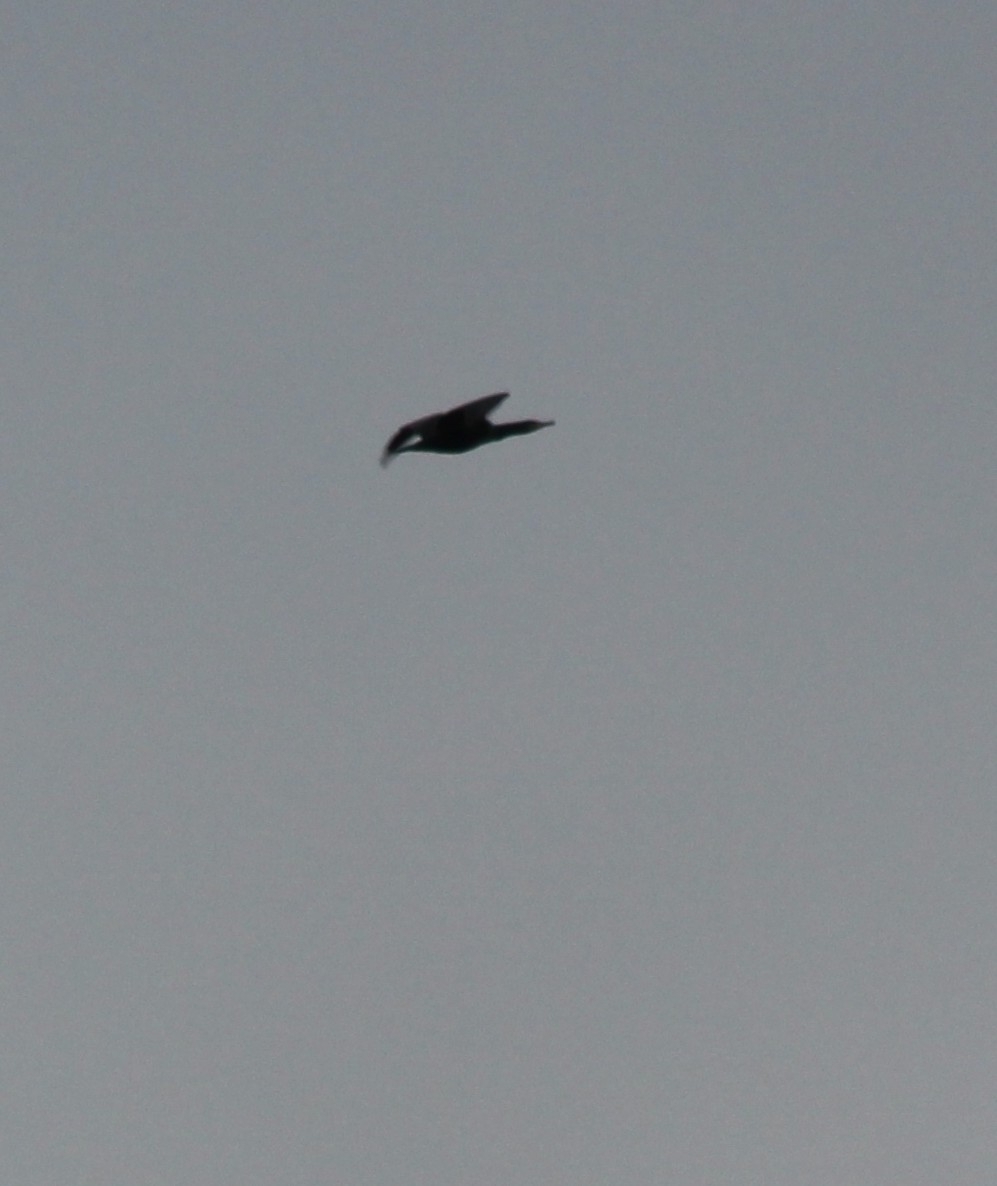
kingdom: Animalia
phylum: Chordata
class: Aves
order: Suliformes
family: Phalacrocoracidae
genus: Phalacrocorax
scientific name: Phalacrocorax carbo
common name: Great cormorant
